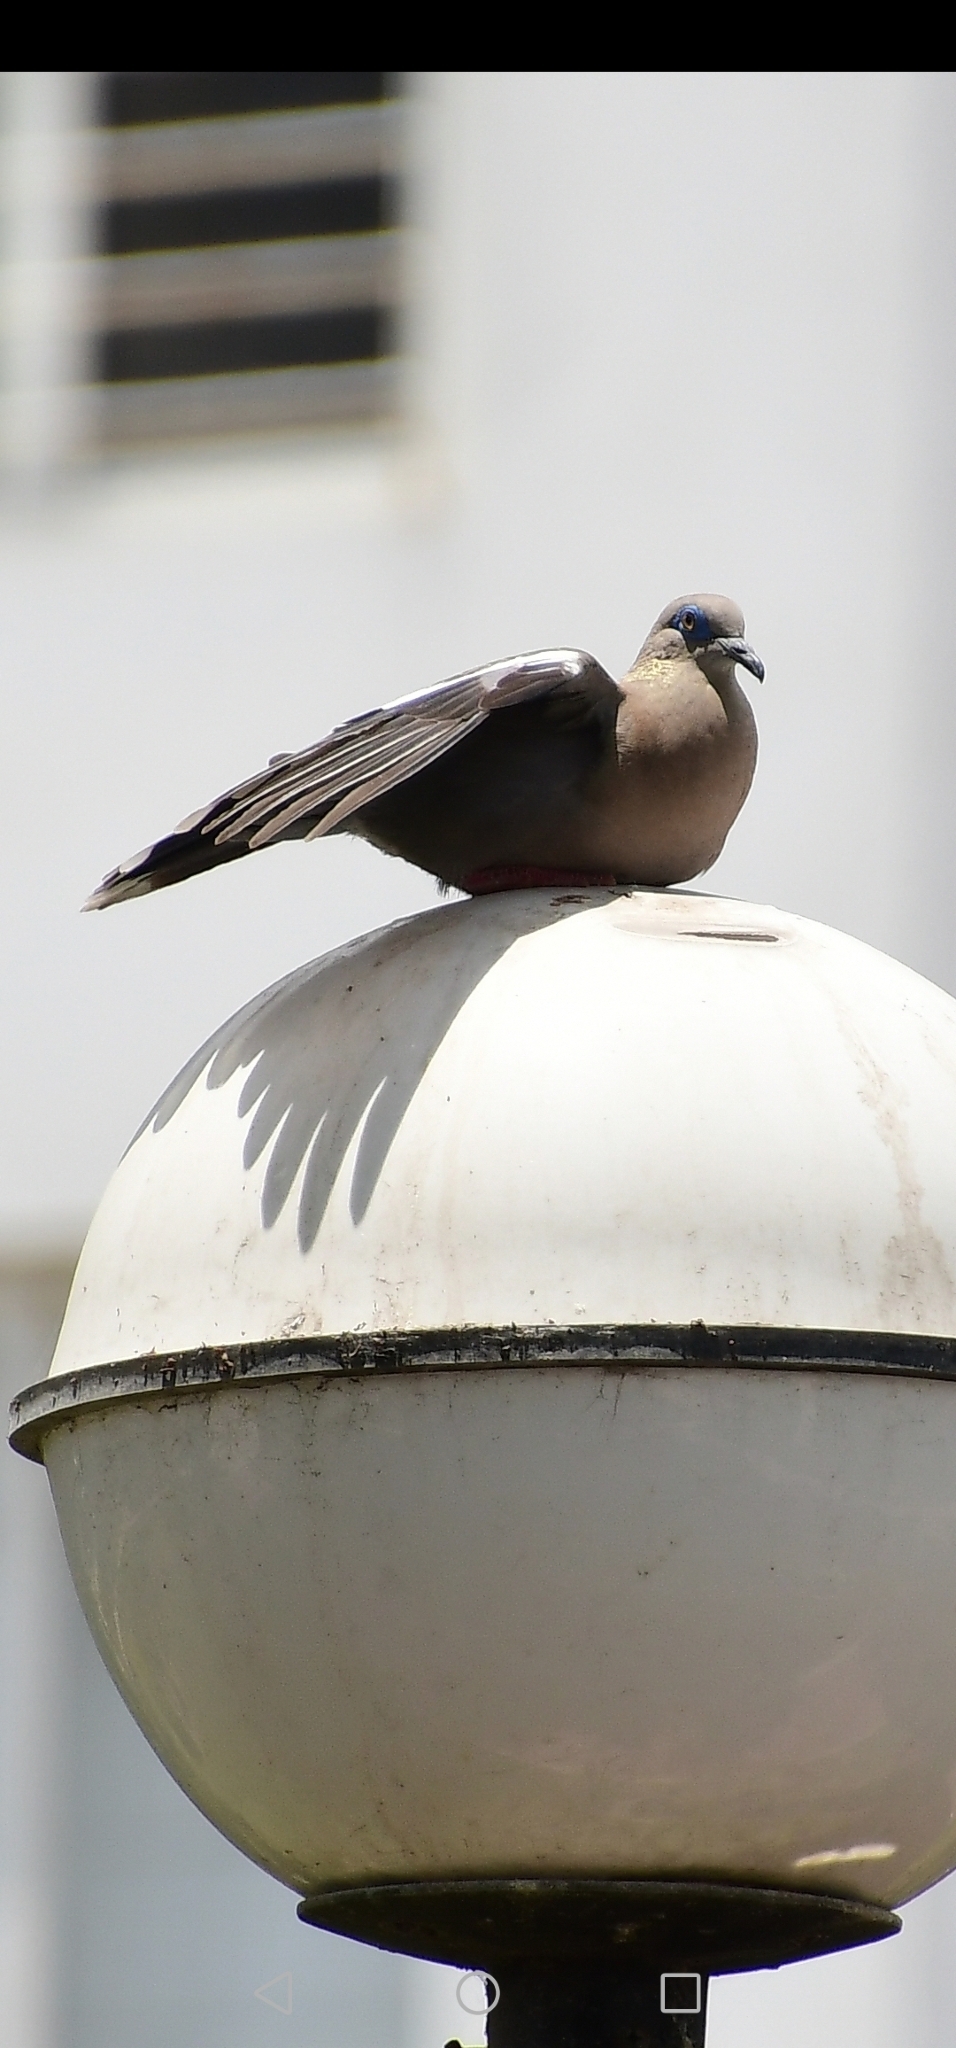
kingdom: Animalia
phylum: Chordata
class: Aves
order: Columbiformes
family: Columbidae
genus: Zenaida
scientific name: Zenaida meloda
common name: West peruvian dove
